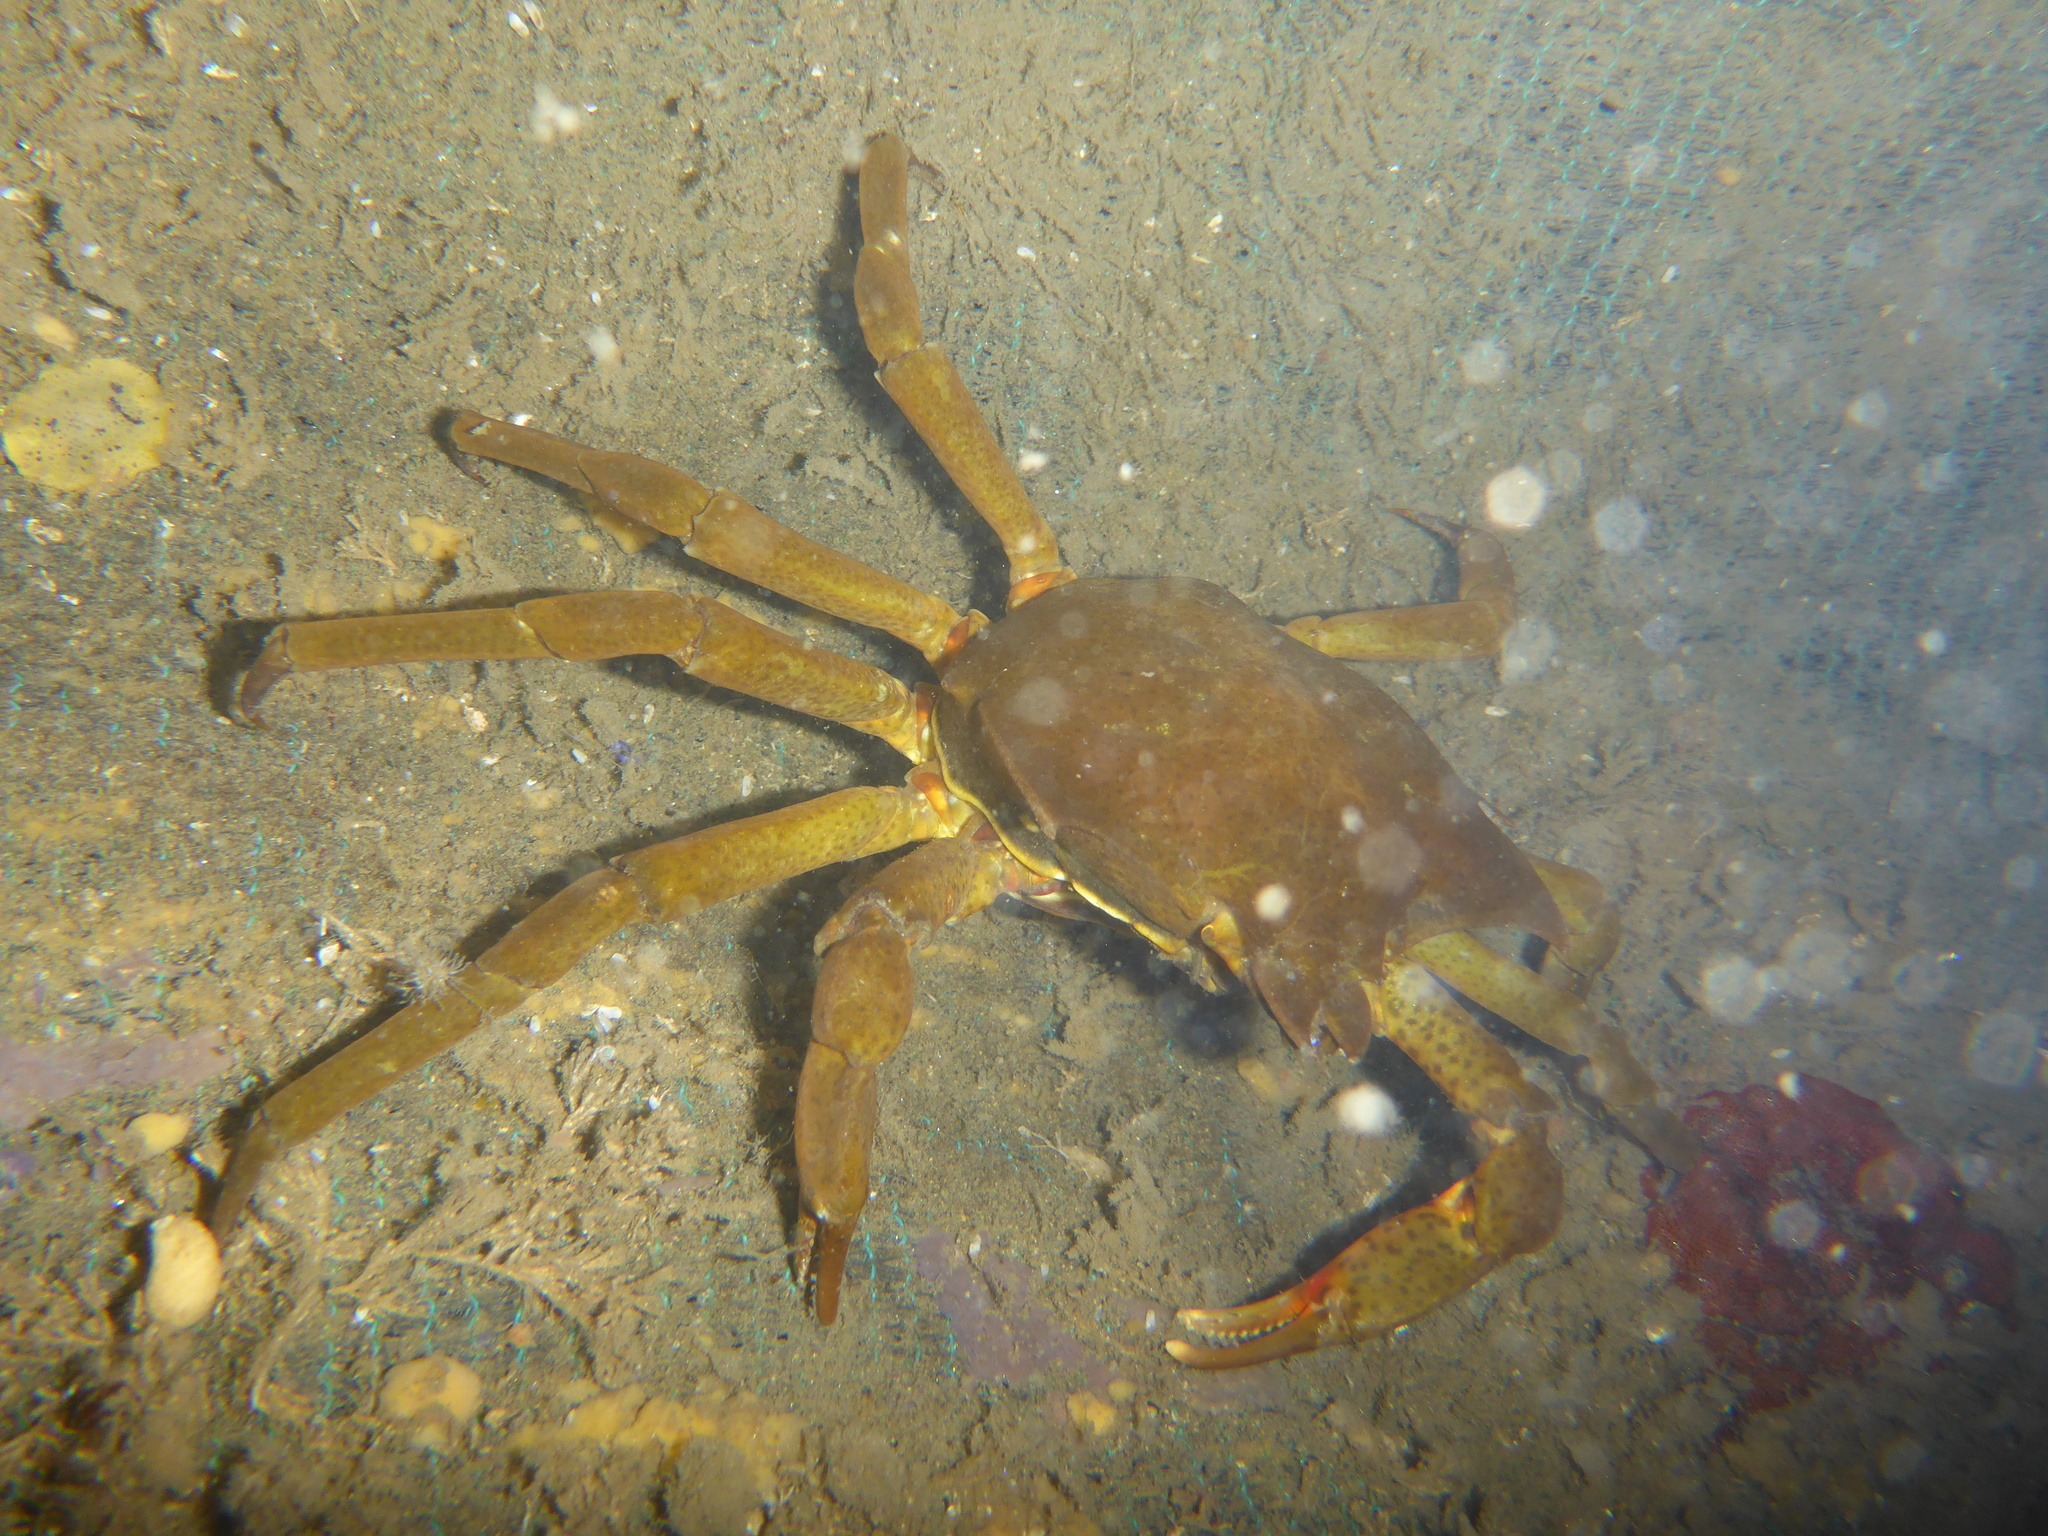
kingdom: Animalia
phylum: Arthropoda
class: Malacostraca
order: Decapoda
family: Epialtidae
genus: Pugettia
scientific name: Pugettia producta
